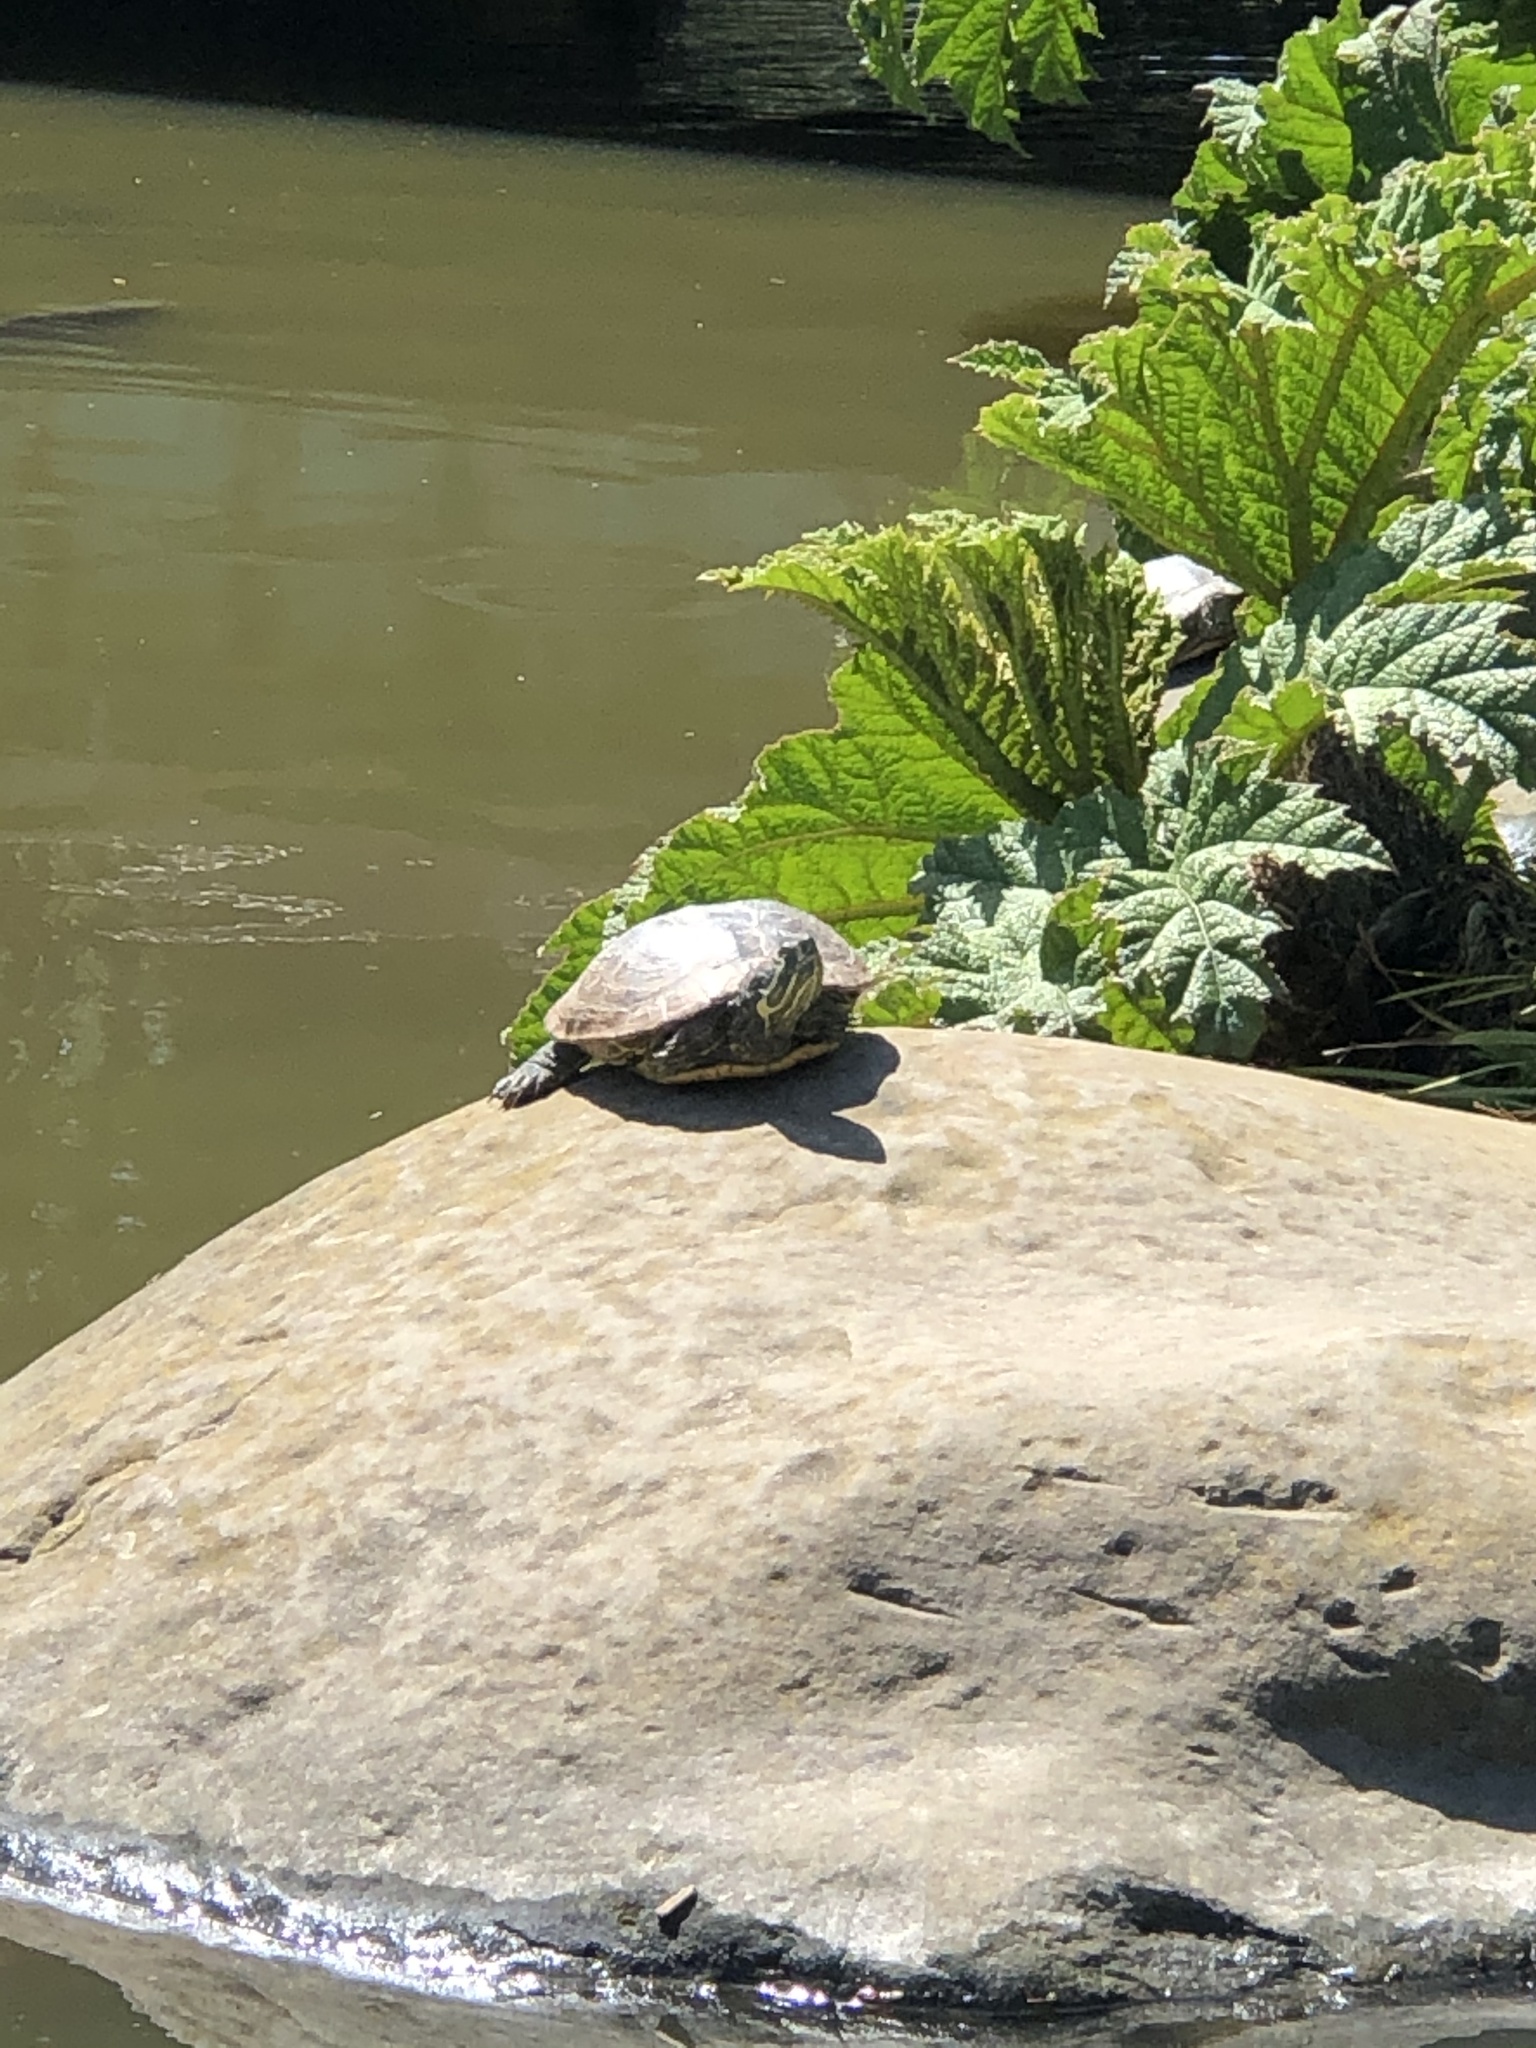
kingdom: Animalia
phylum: Chordata
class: Testudines
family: Emydidae
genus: Trachemys
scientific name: Trachemys scripta
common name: Slider
